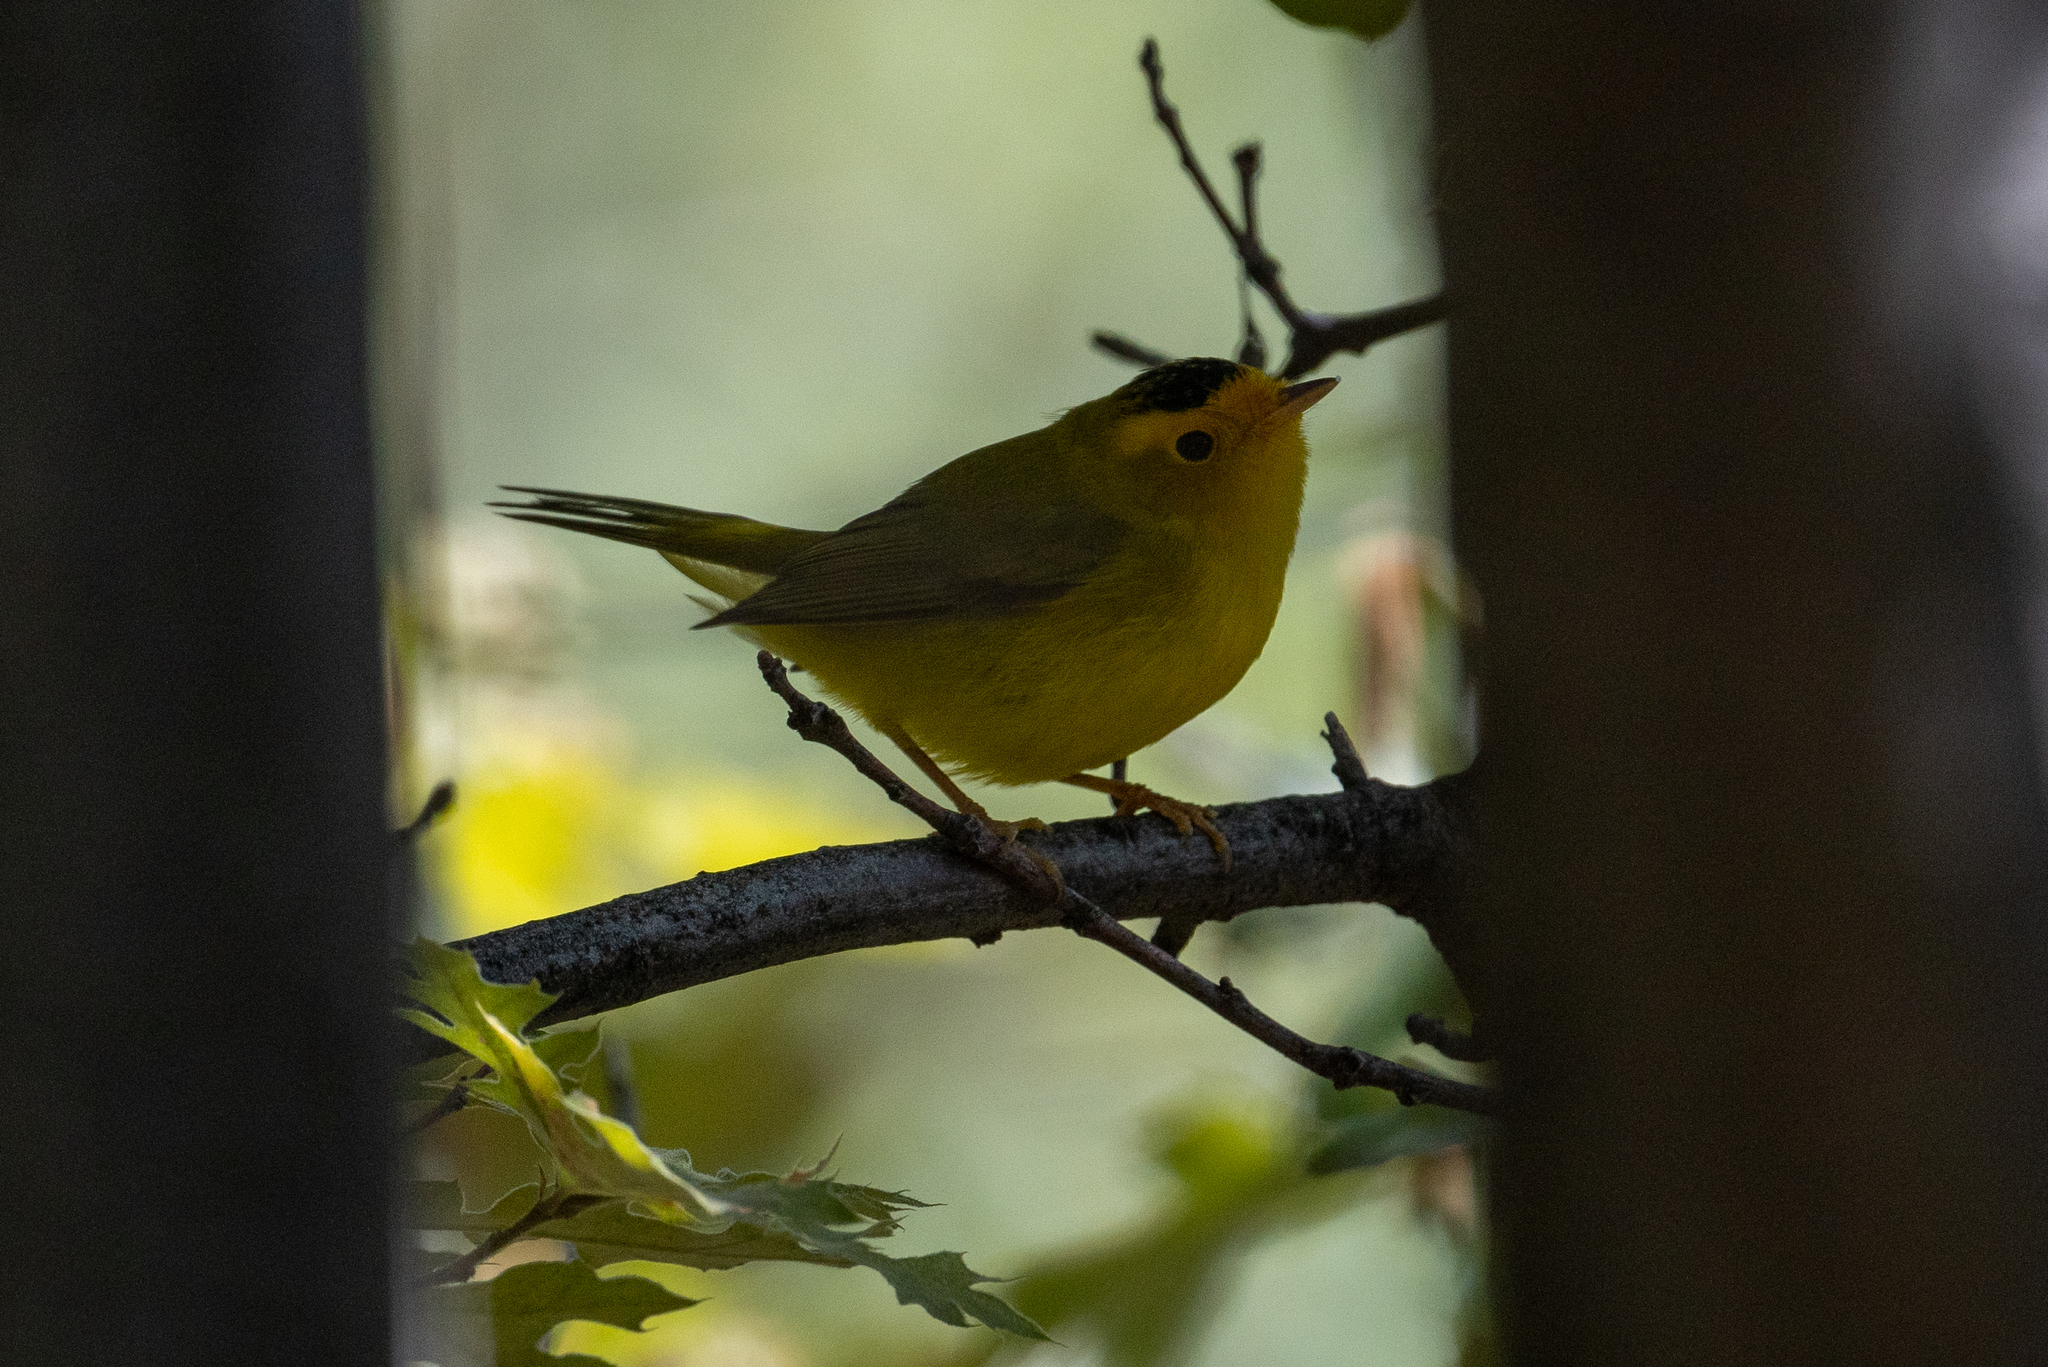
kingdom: Animalia
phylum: Chordata
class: Aves
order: Passeriformes
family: Parulidae
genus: Cardellina
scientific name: Cardellina pusilla
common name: Wilson's warbler
